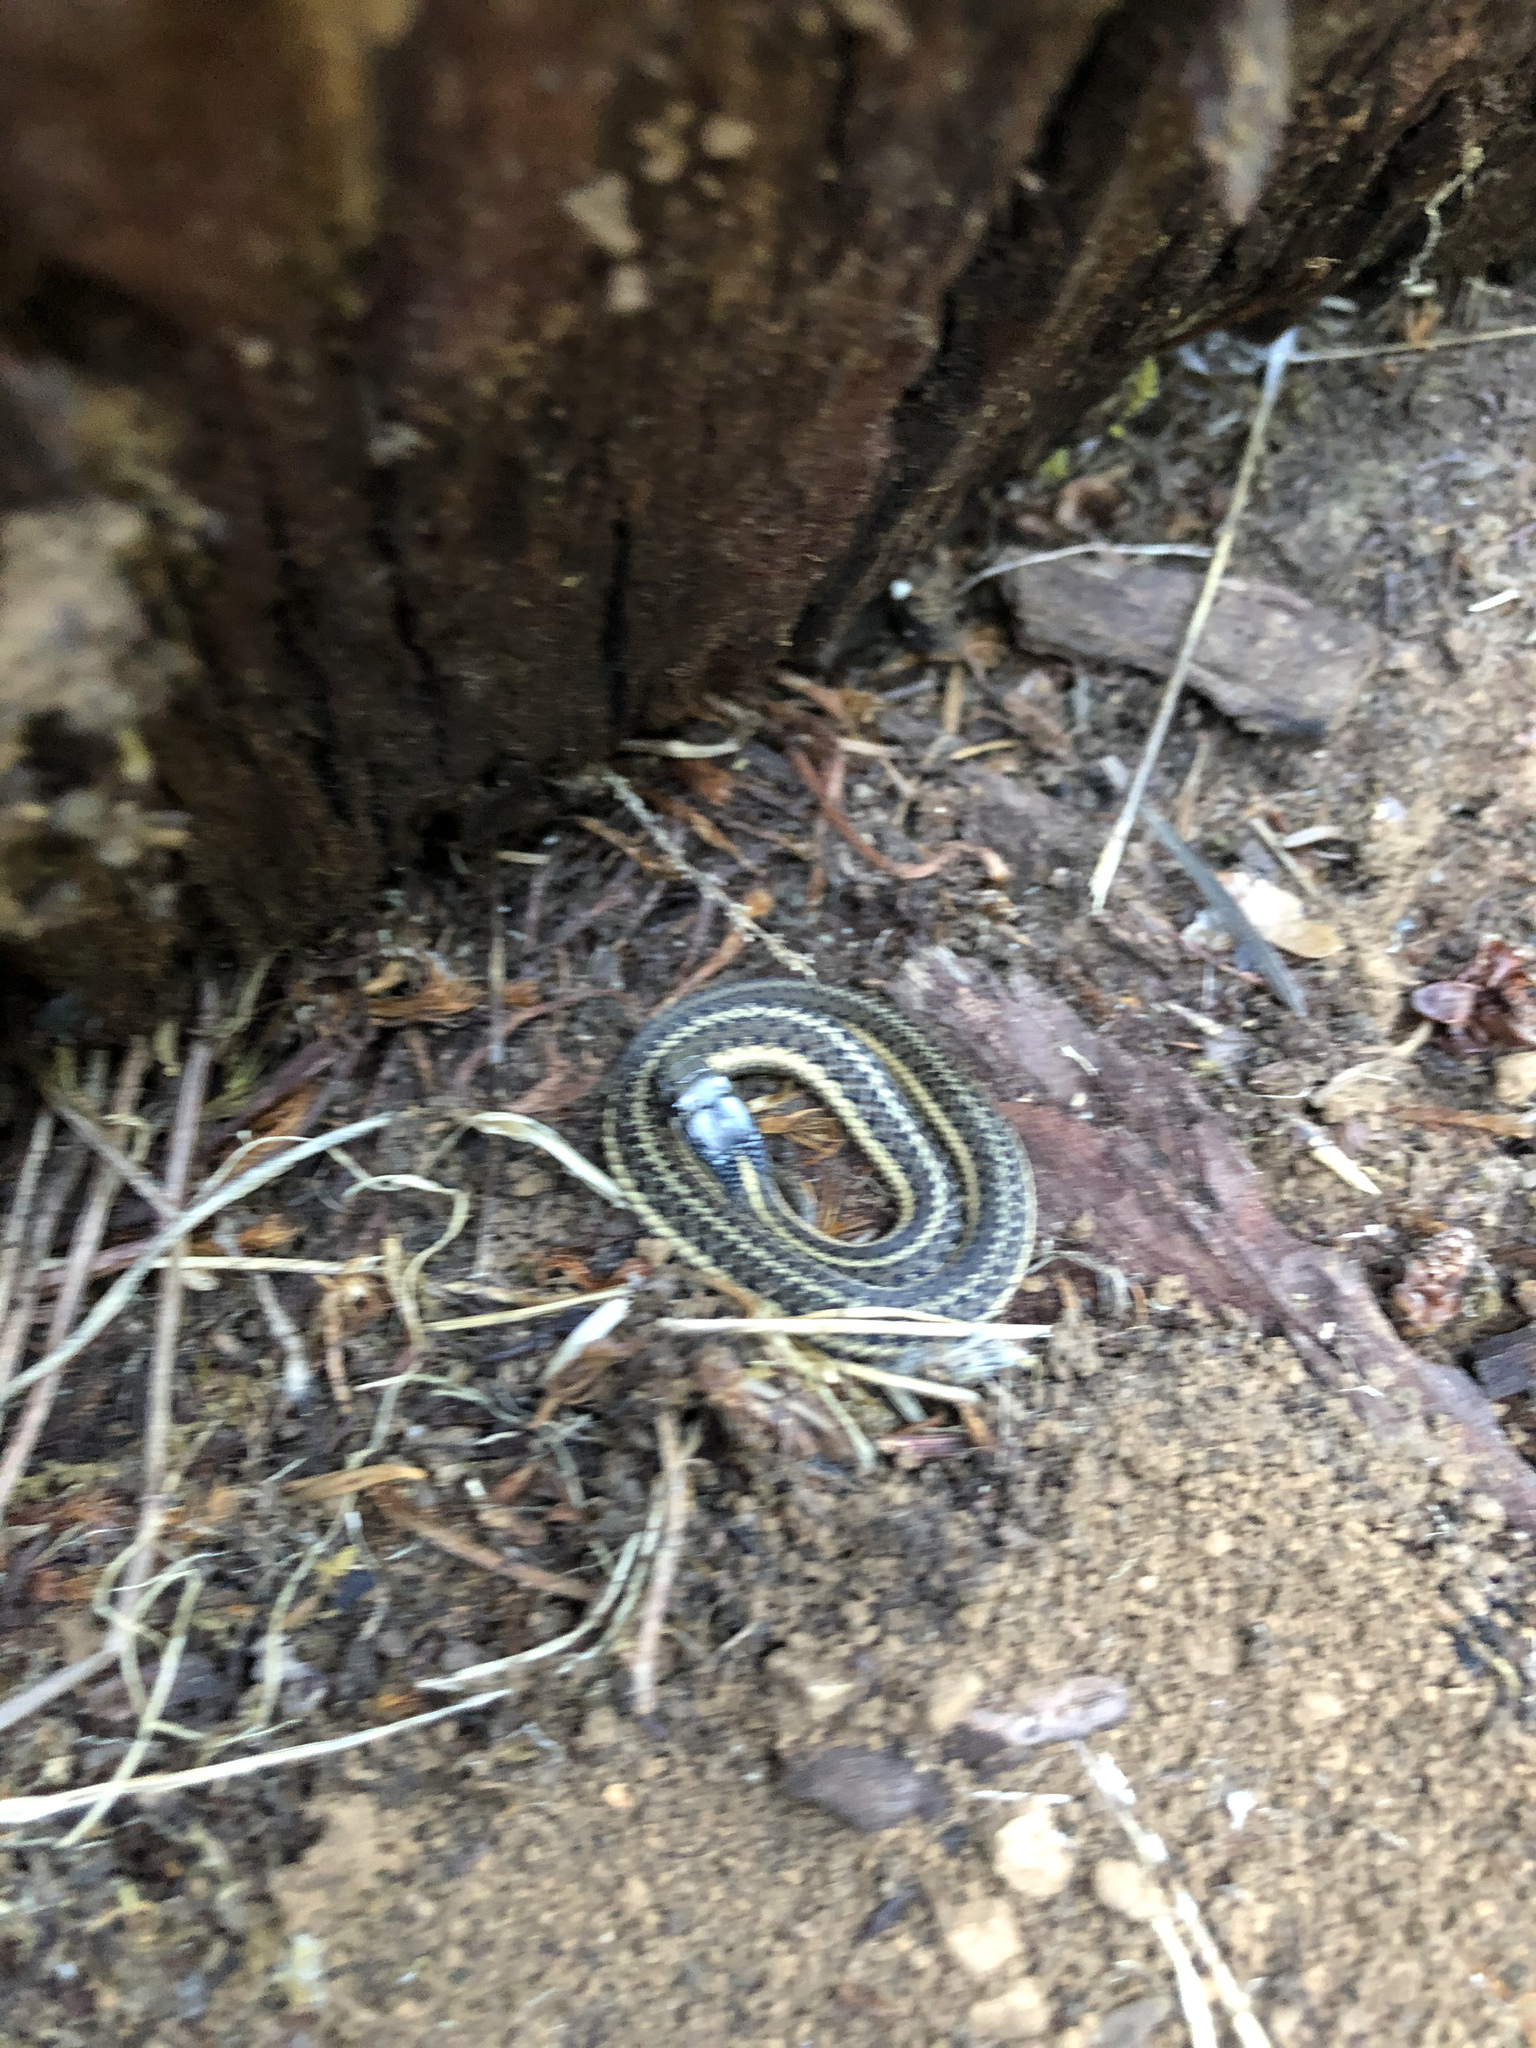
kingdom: Animalia
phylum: Chordata
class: Squamata
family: Colubridae
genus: Thamnophis
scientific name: Thamnophis ordinoides
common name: Northwestern garter snake
